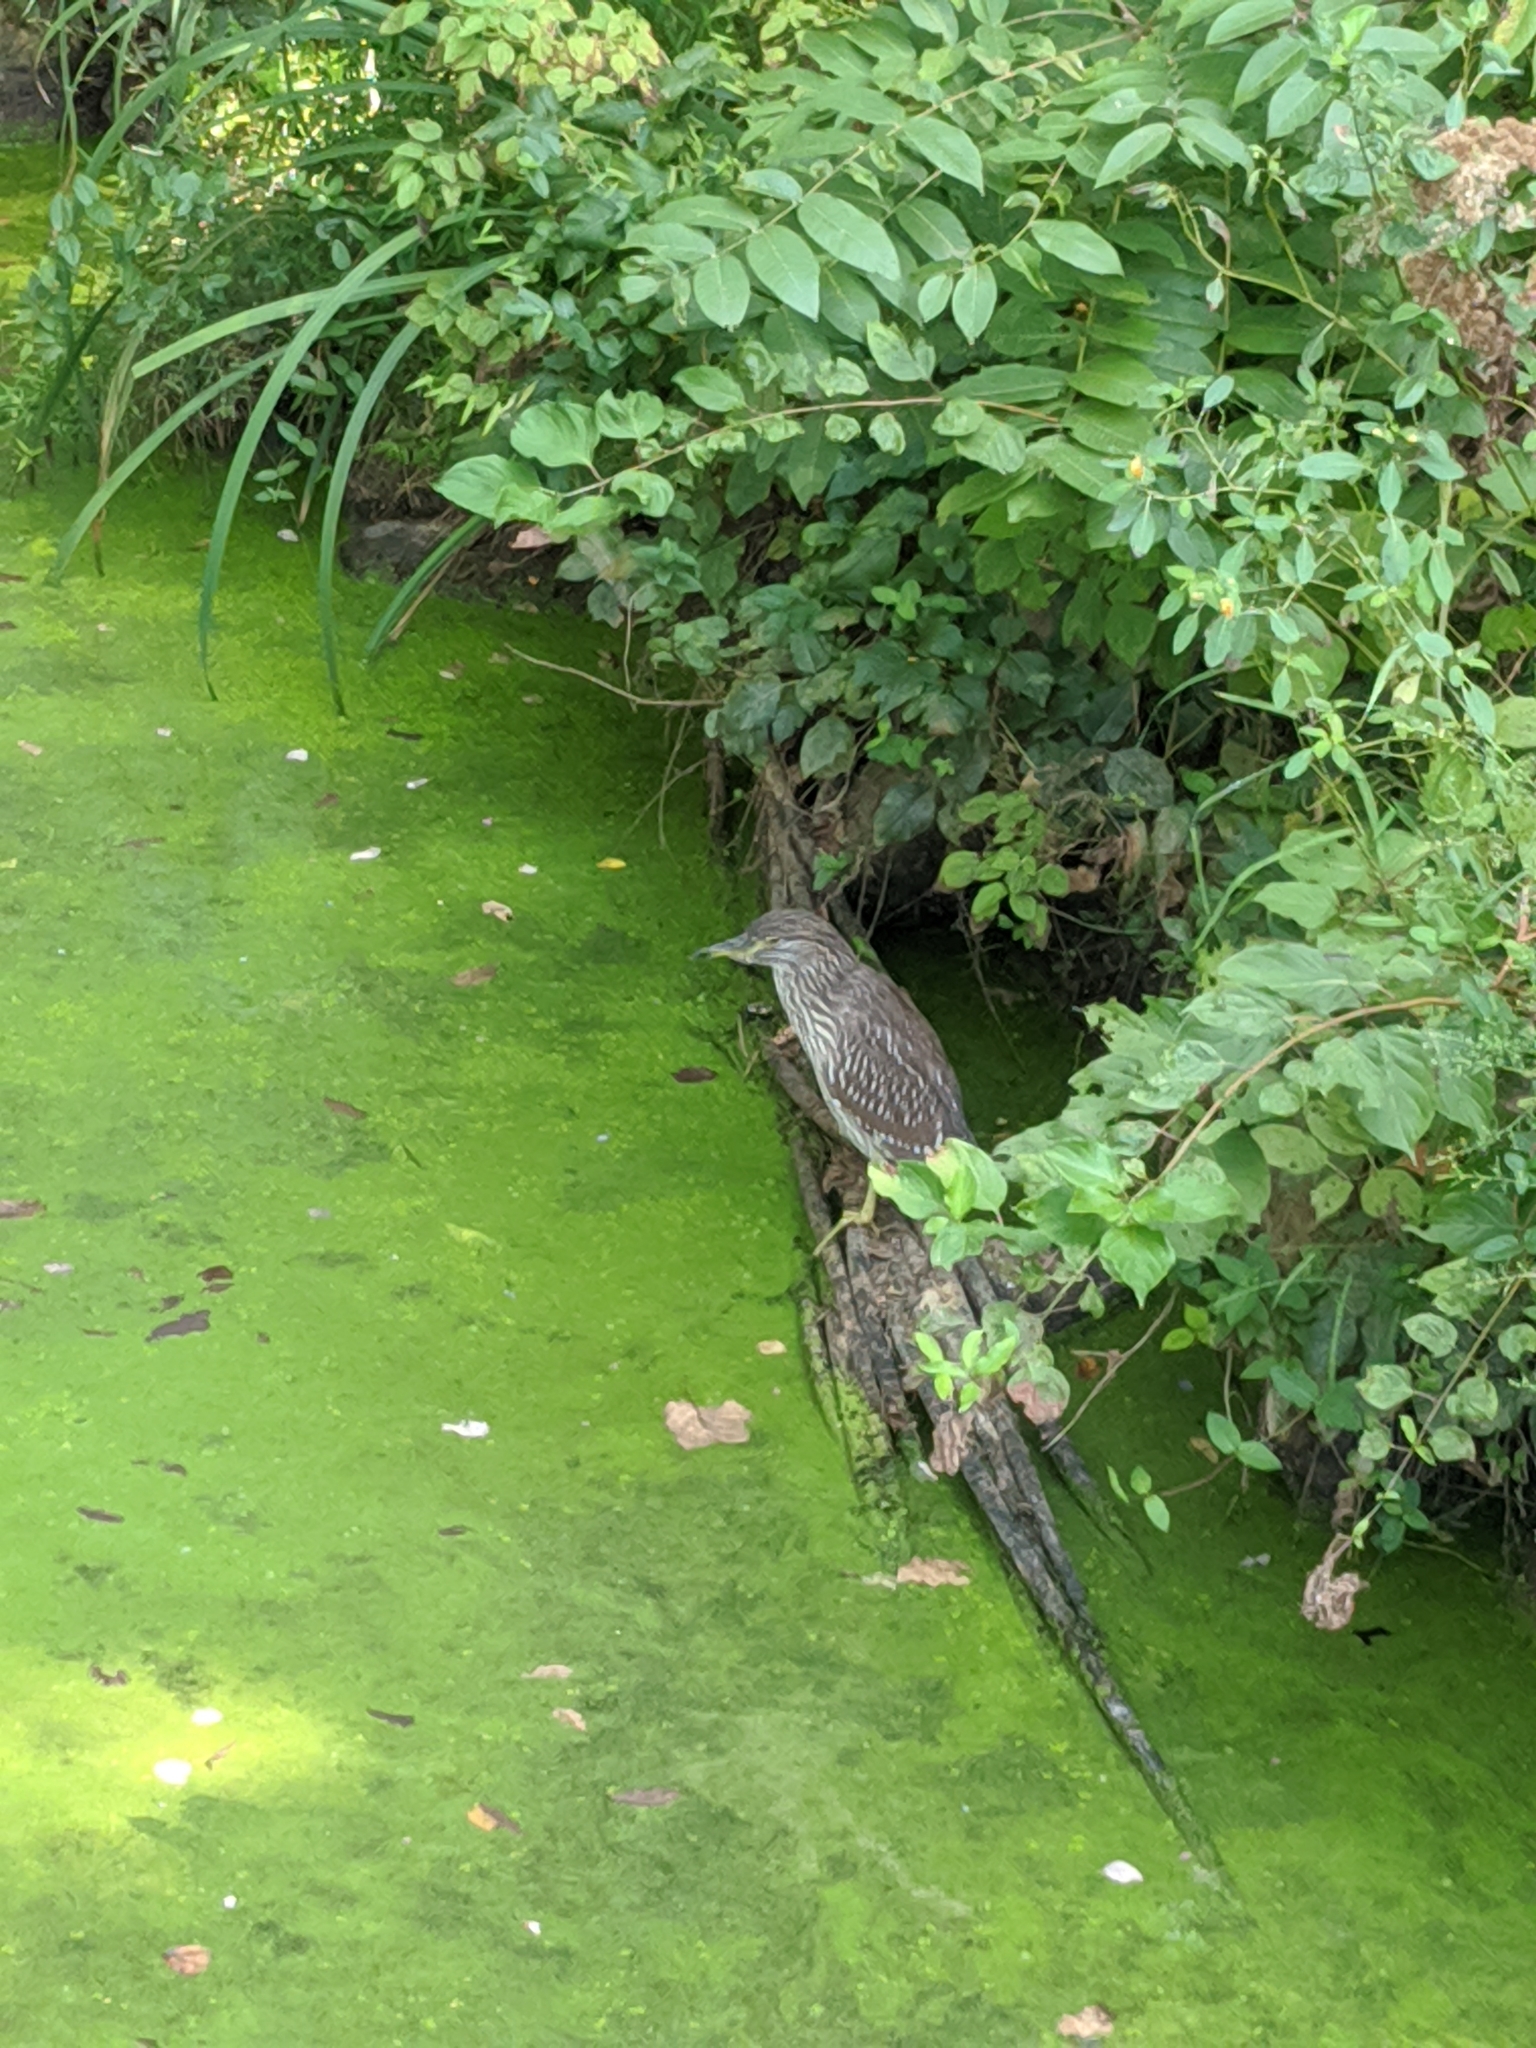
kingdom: Animalia
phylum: Chordata
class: Aves
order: Pelecaniformes
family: Ardeidae
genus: Nycticorax
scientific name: Nycticorax nycticorax
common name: Black-crowned night heron
